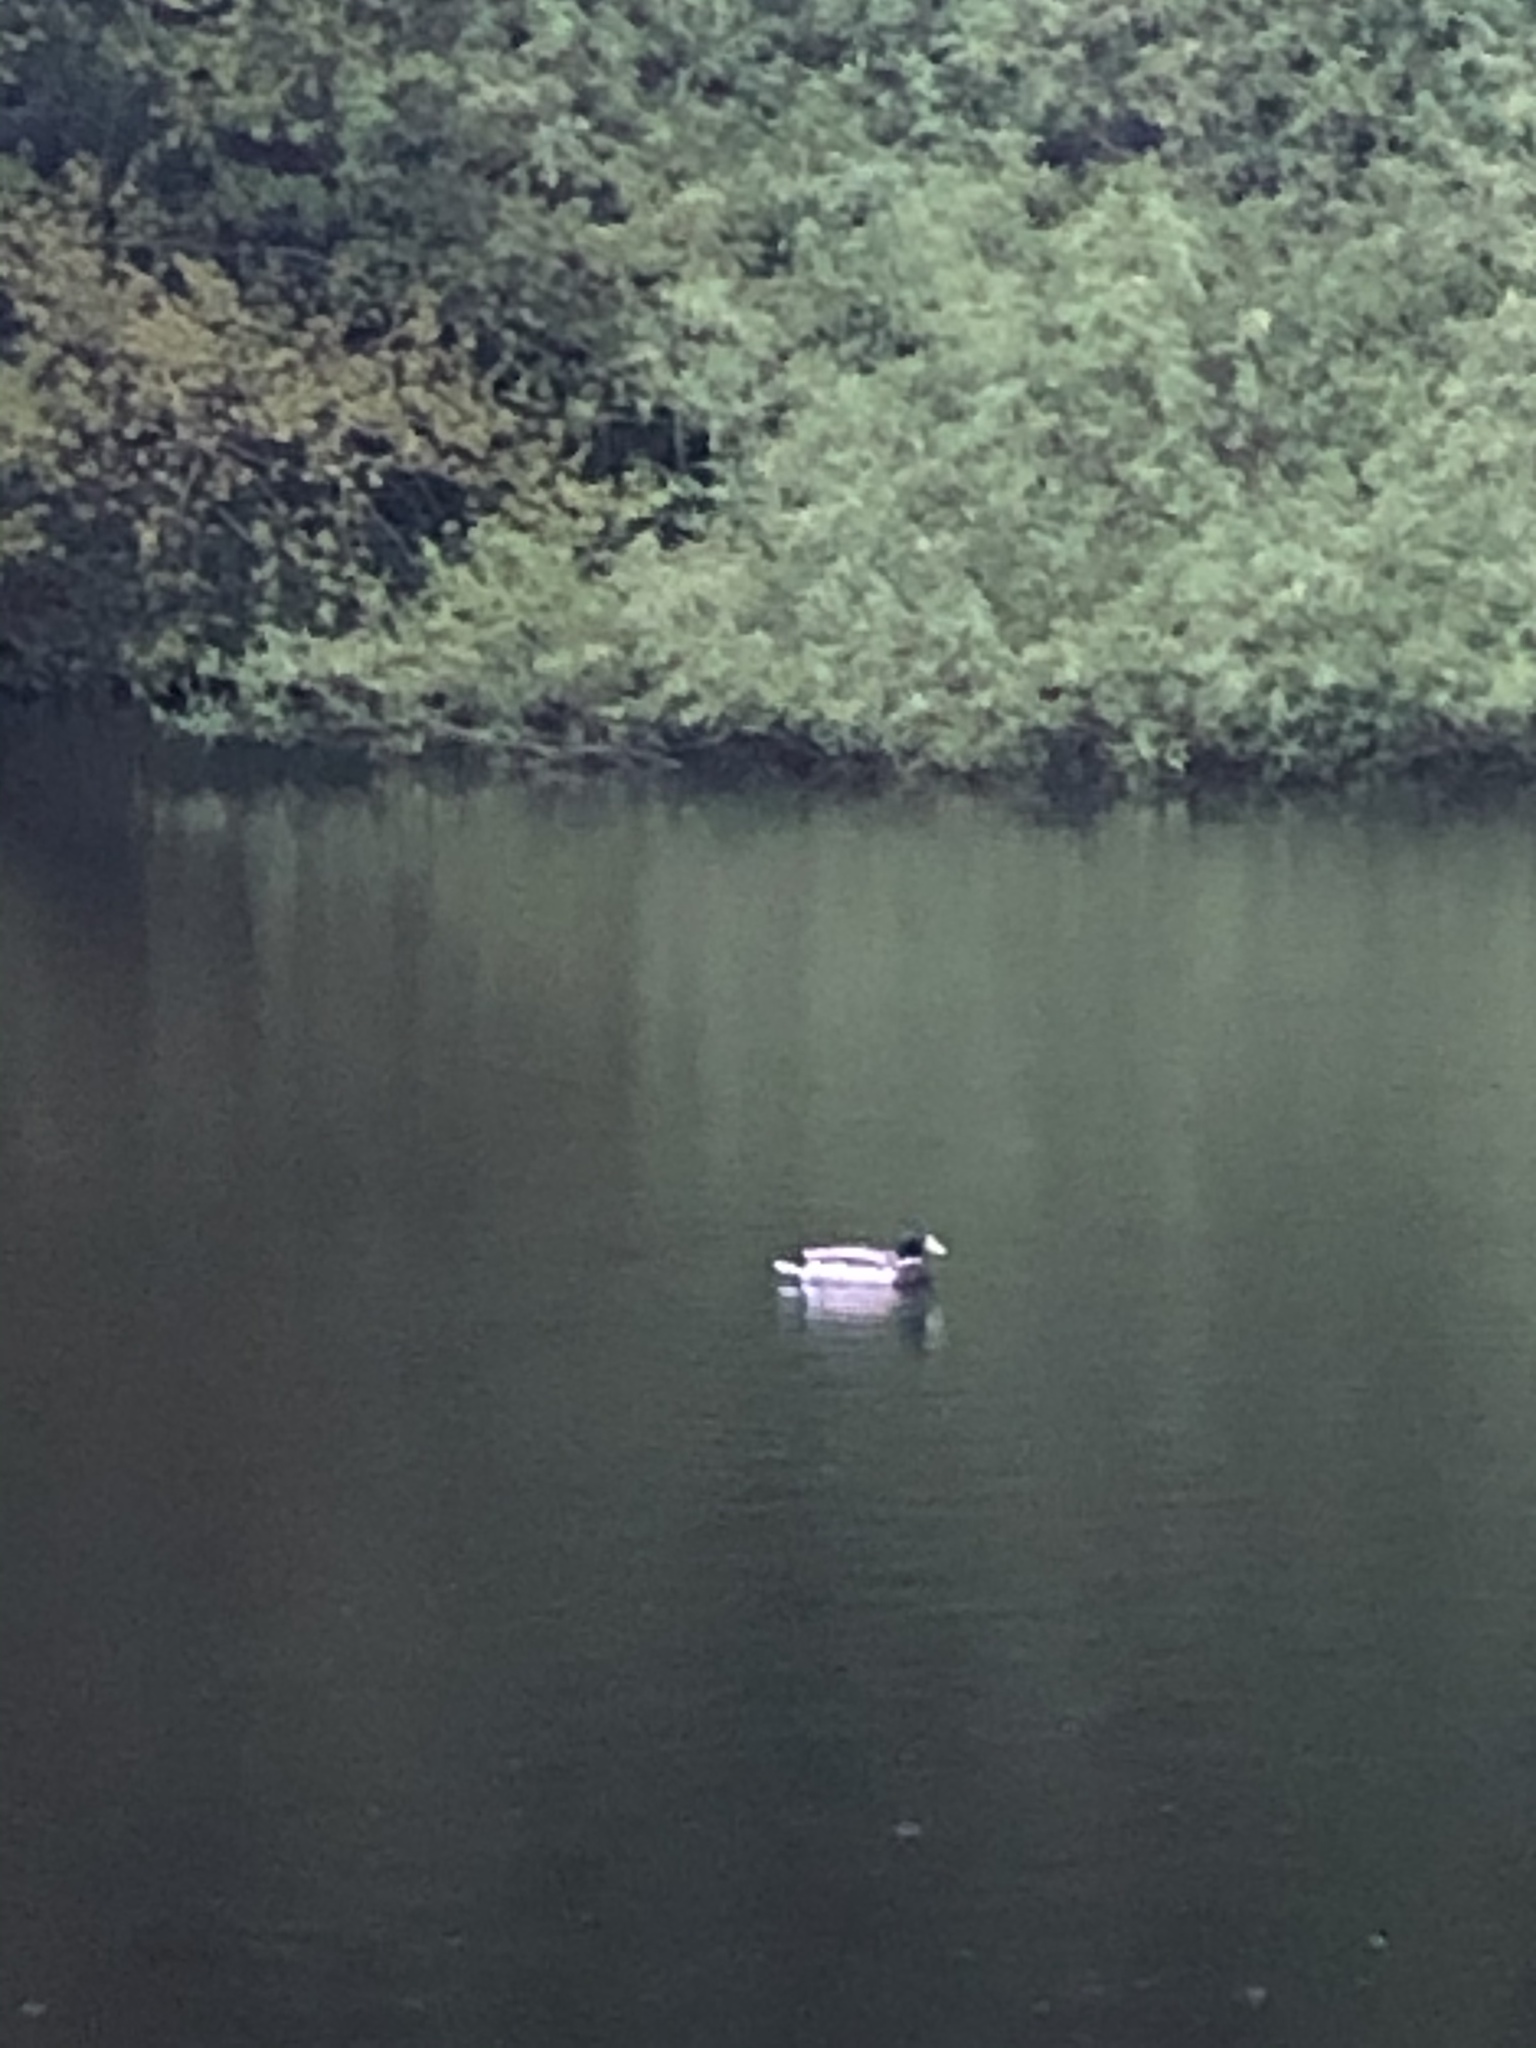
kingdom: Animalia
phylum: Chordata
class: Aves
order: Anseriformes
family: Anatidae
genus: Anas
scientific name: Anas platyrhynchos
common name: Mallard
